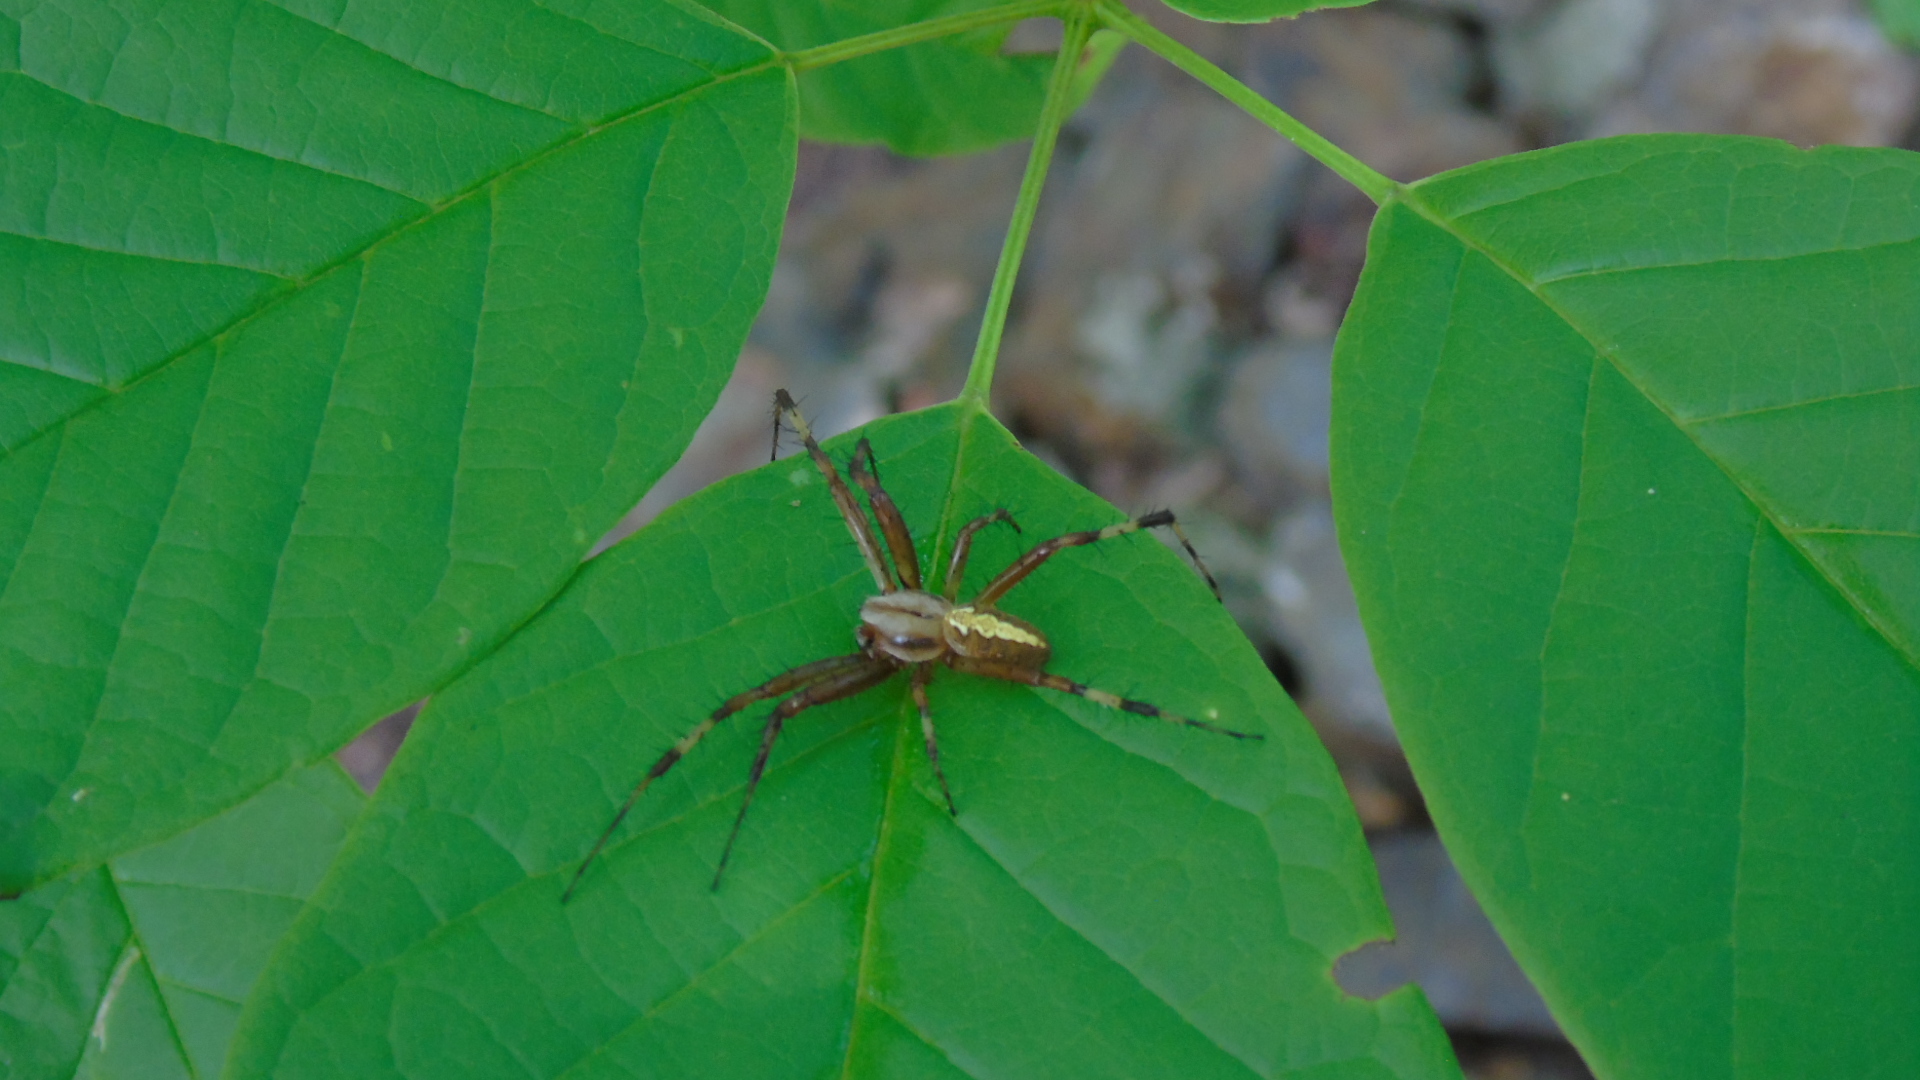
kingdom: Animalia
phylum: Arthropoda
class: Arachnida
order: Araneae
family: Araneidae
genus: Neoscona
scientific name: Neoscona oaxacensis
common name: Orb weavers
